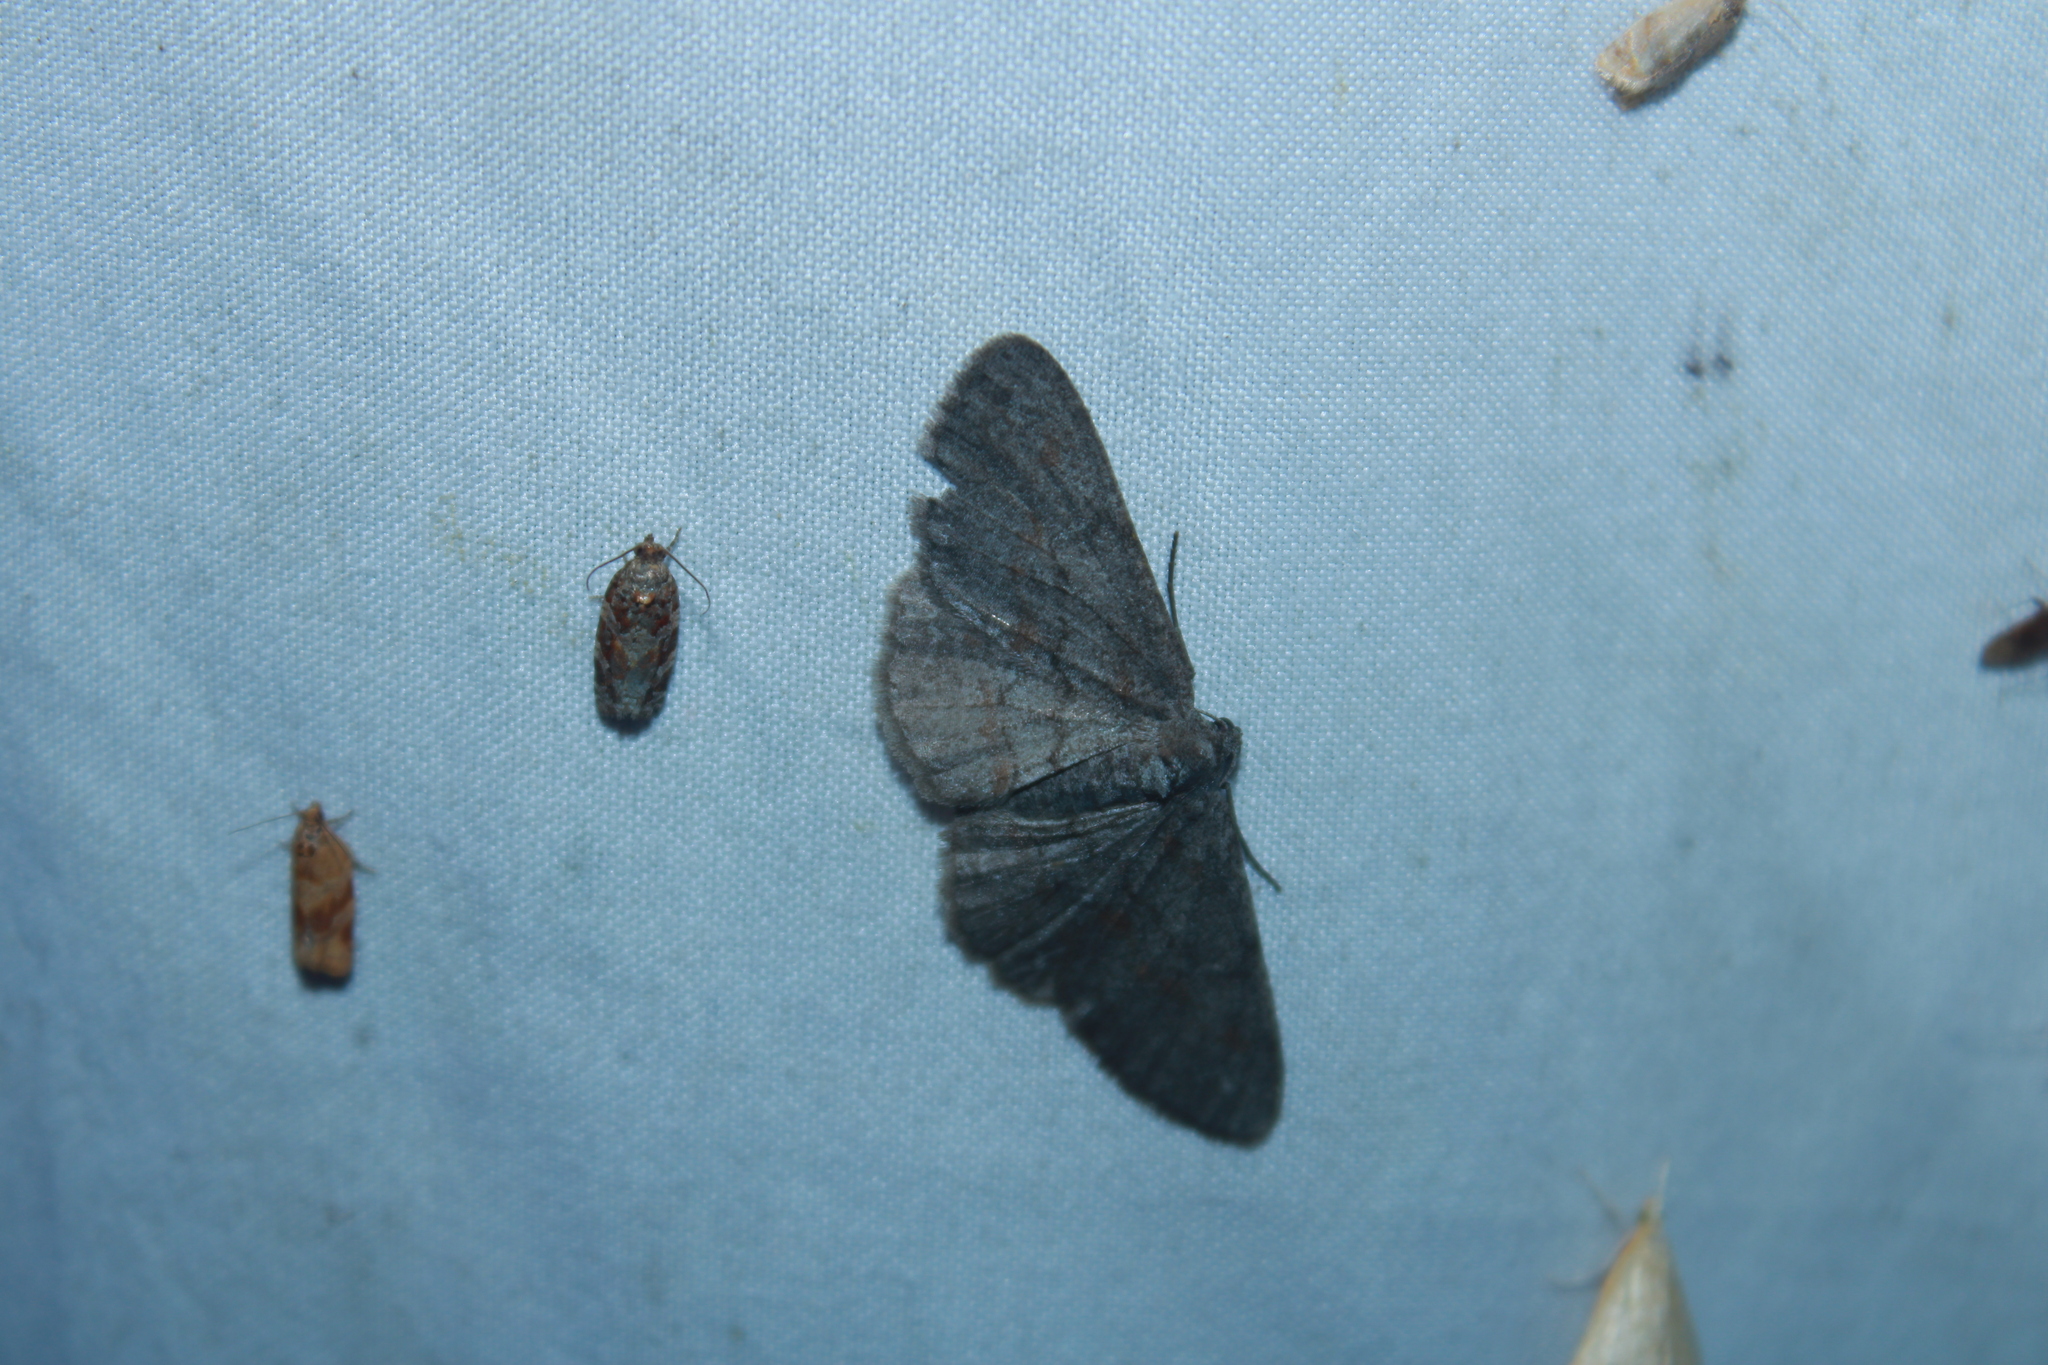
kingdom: Animalia
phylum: Arthropoda
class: Insecta
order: Lepidoptera
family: Geometridae
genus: Iridopsis
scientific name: Iridopsis vellivolata
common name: Large purplish gray
